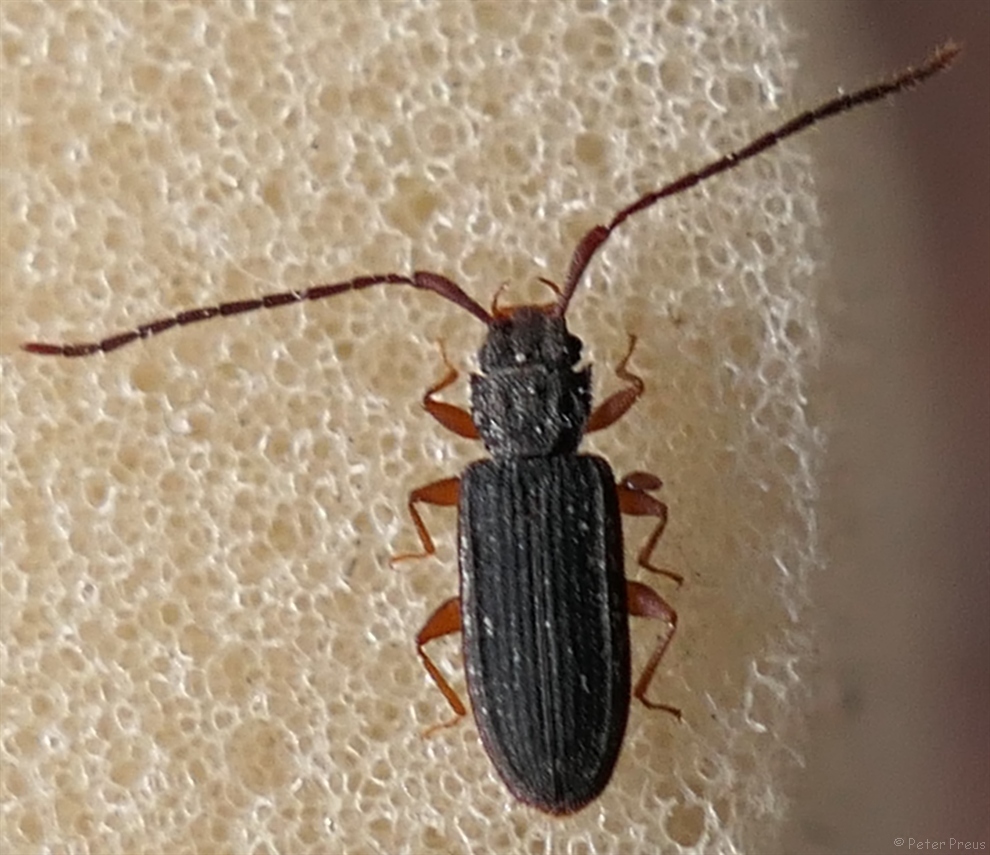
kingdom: Animalia
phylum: Arthropoda
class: Insecta
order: Coleoptera
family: Silvanidae
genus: Uleiota
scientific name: Uleiota planatus
